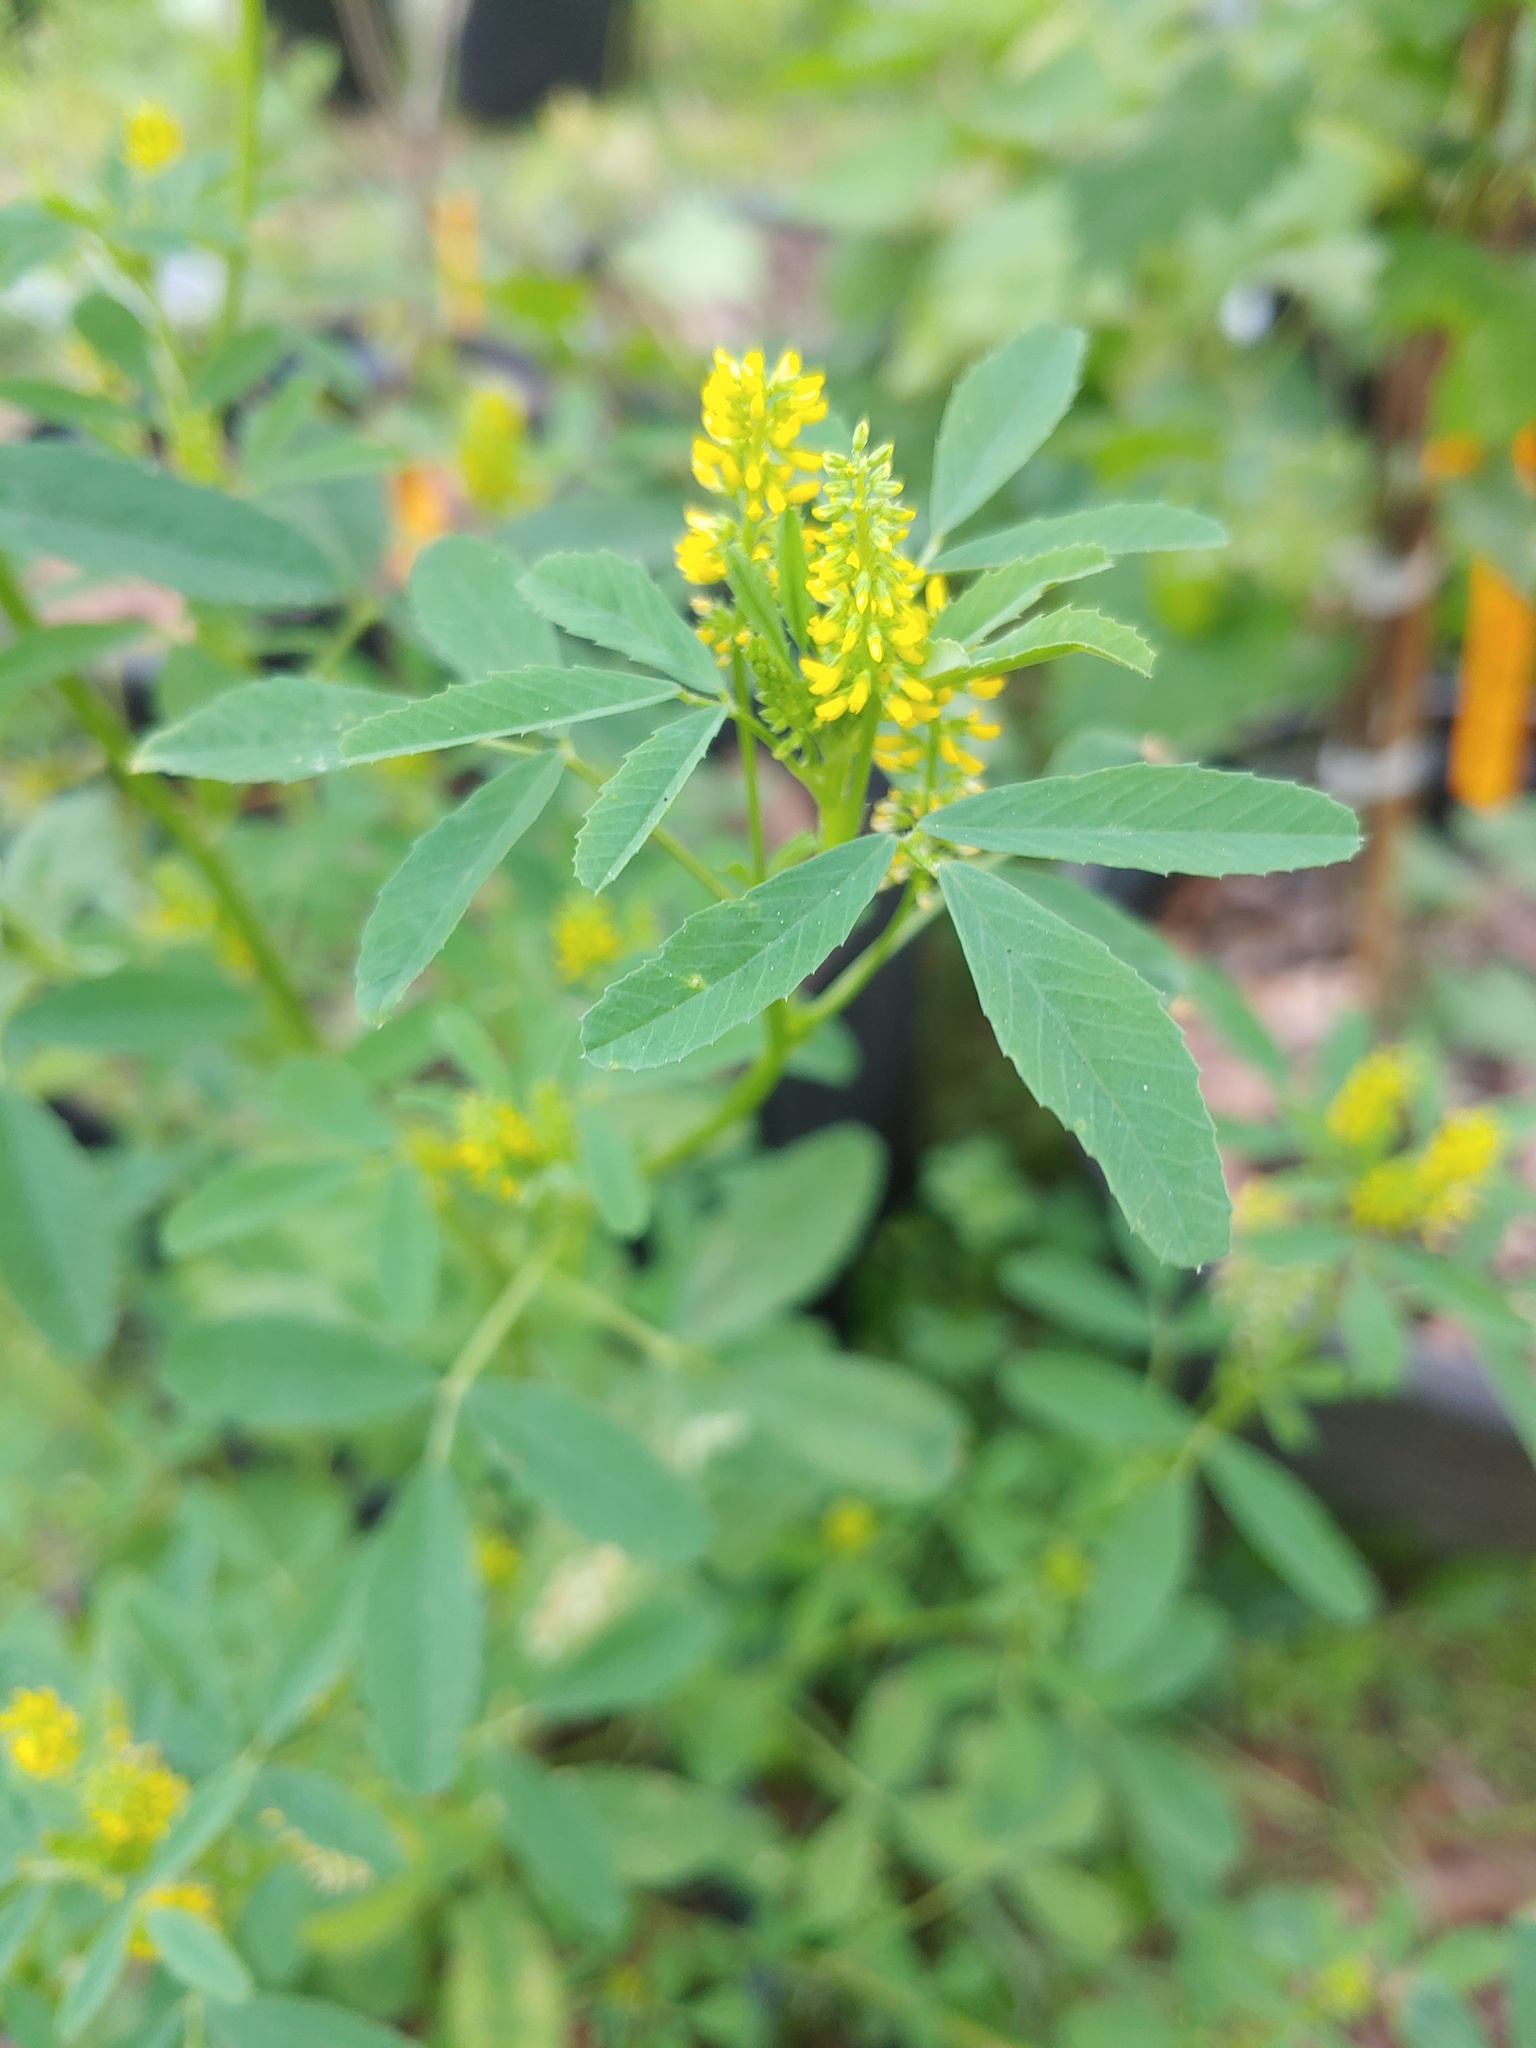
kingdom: Plantae
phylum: Tracheophyta
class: Magnoliopsida
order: Fabales
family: Fabaceae
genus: Melilotus
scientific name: Melilotus indicus
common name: Small melilot
